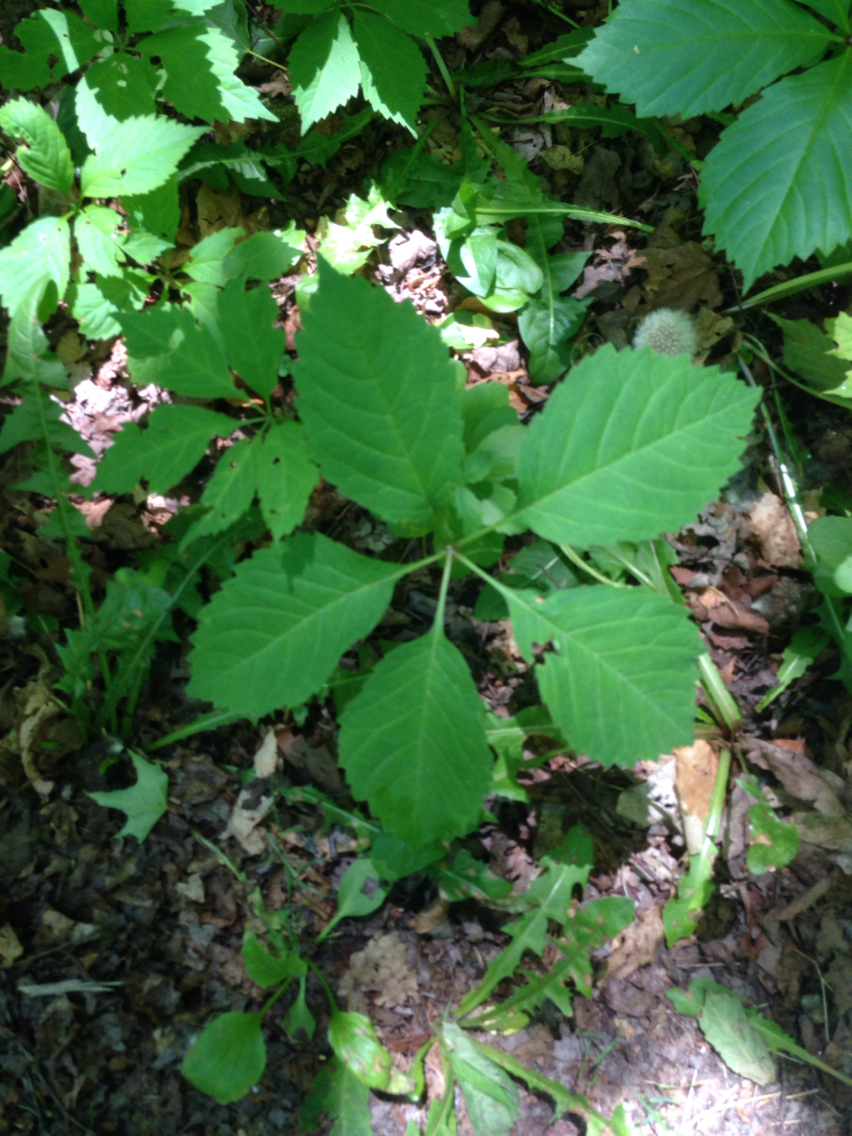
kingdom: Plantae
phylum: Tracheophyta
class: Magnoliopsida
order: Vitales
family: Vitaceae
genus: Parthenocissus
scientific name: Parthenocissus inserta
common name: False virginia-creeper
